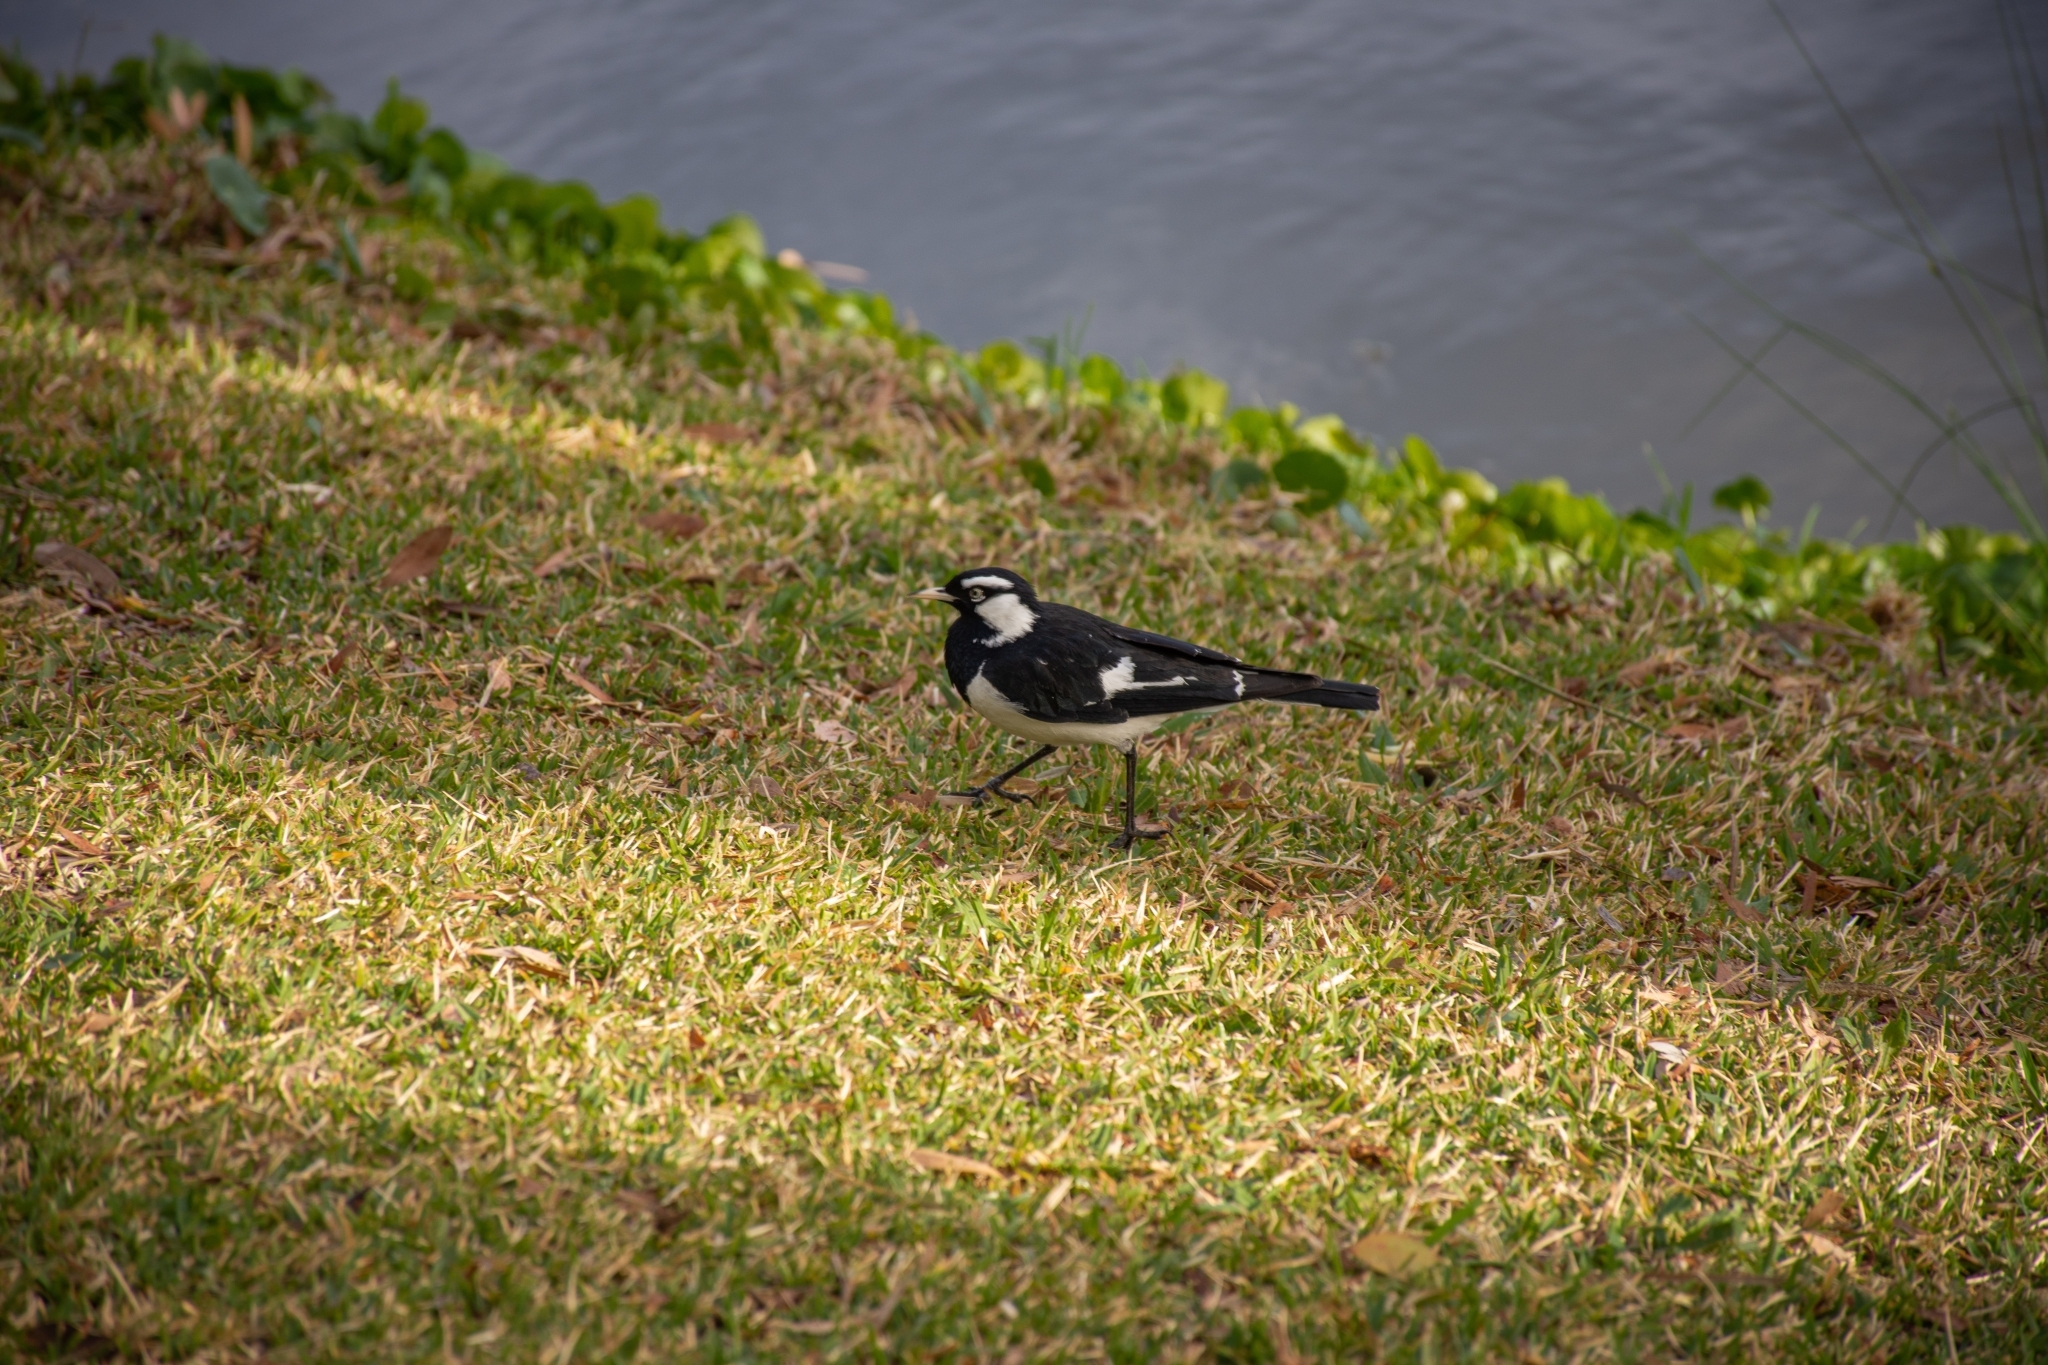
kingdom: Animalia
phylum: Chordata
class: Aves
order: Passeriformes
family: Monarchidae
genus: Grallina
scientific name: Grallina cyanoleuca
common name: Magpie-lark
